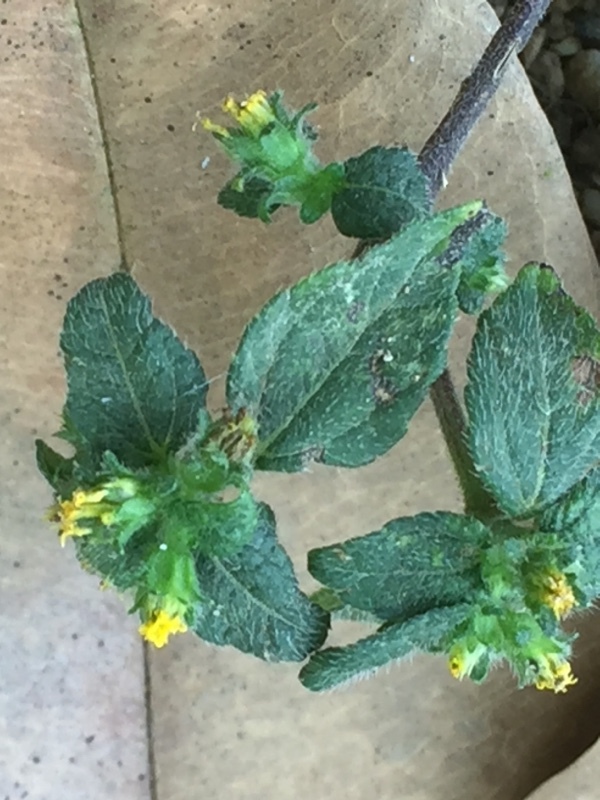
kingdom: Plantae
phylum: Tracheophyta
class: Magnoliopsida
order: Asterales
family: Asteraceae
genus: Synedrella
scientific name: Synedrella nodiflora
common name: Nodeweed
